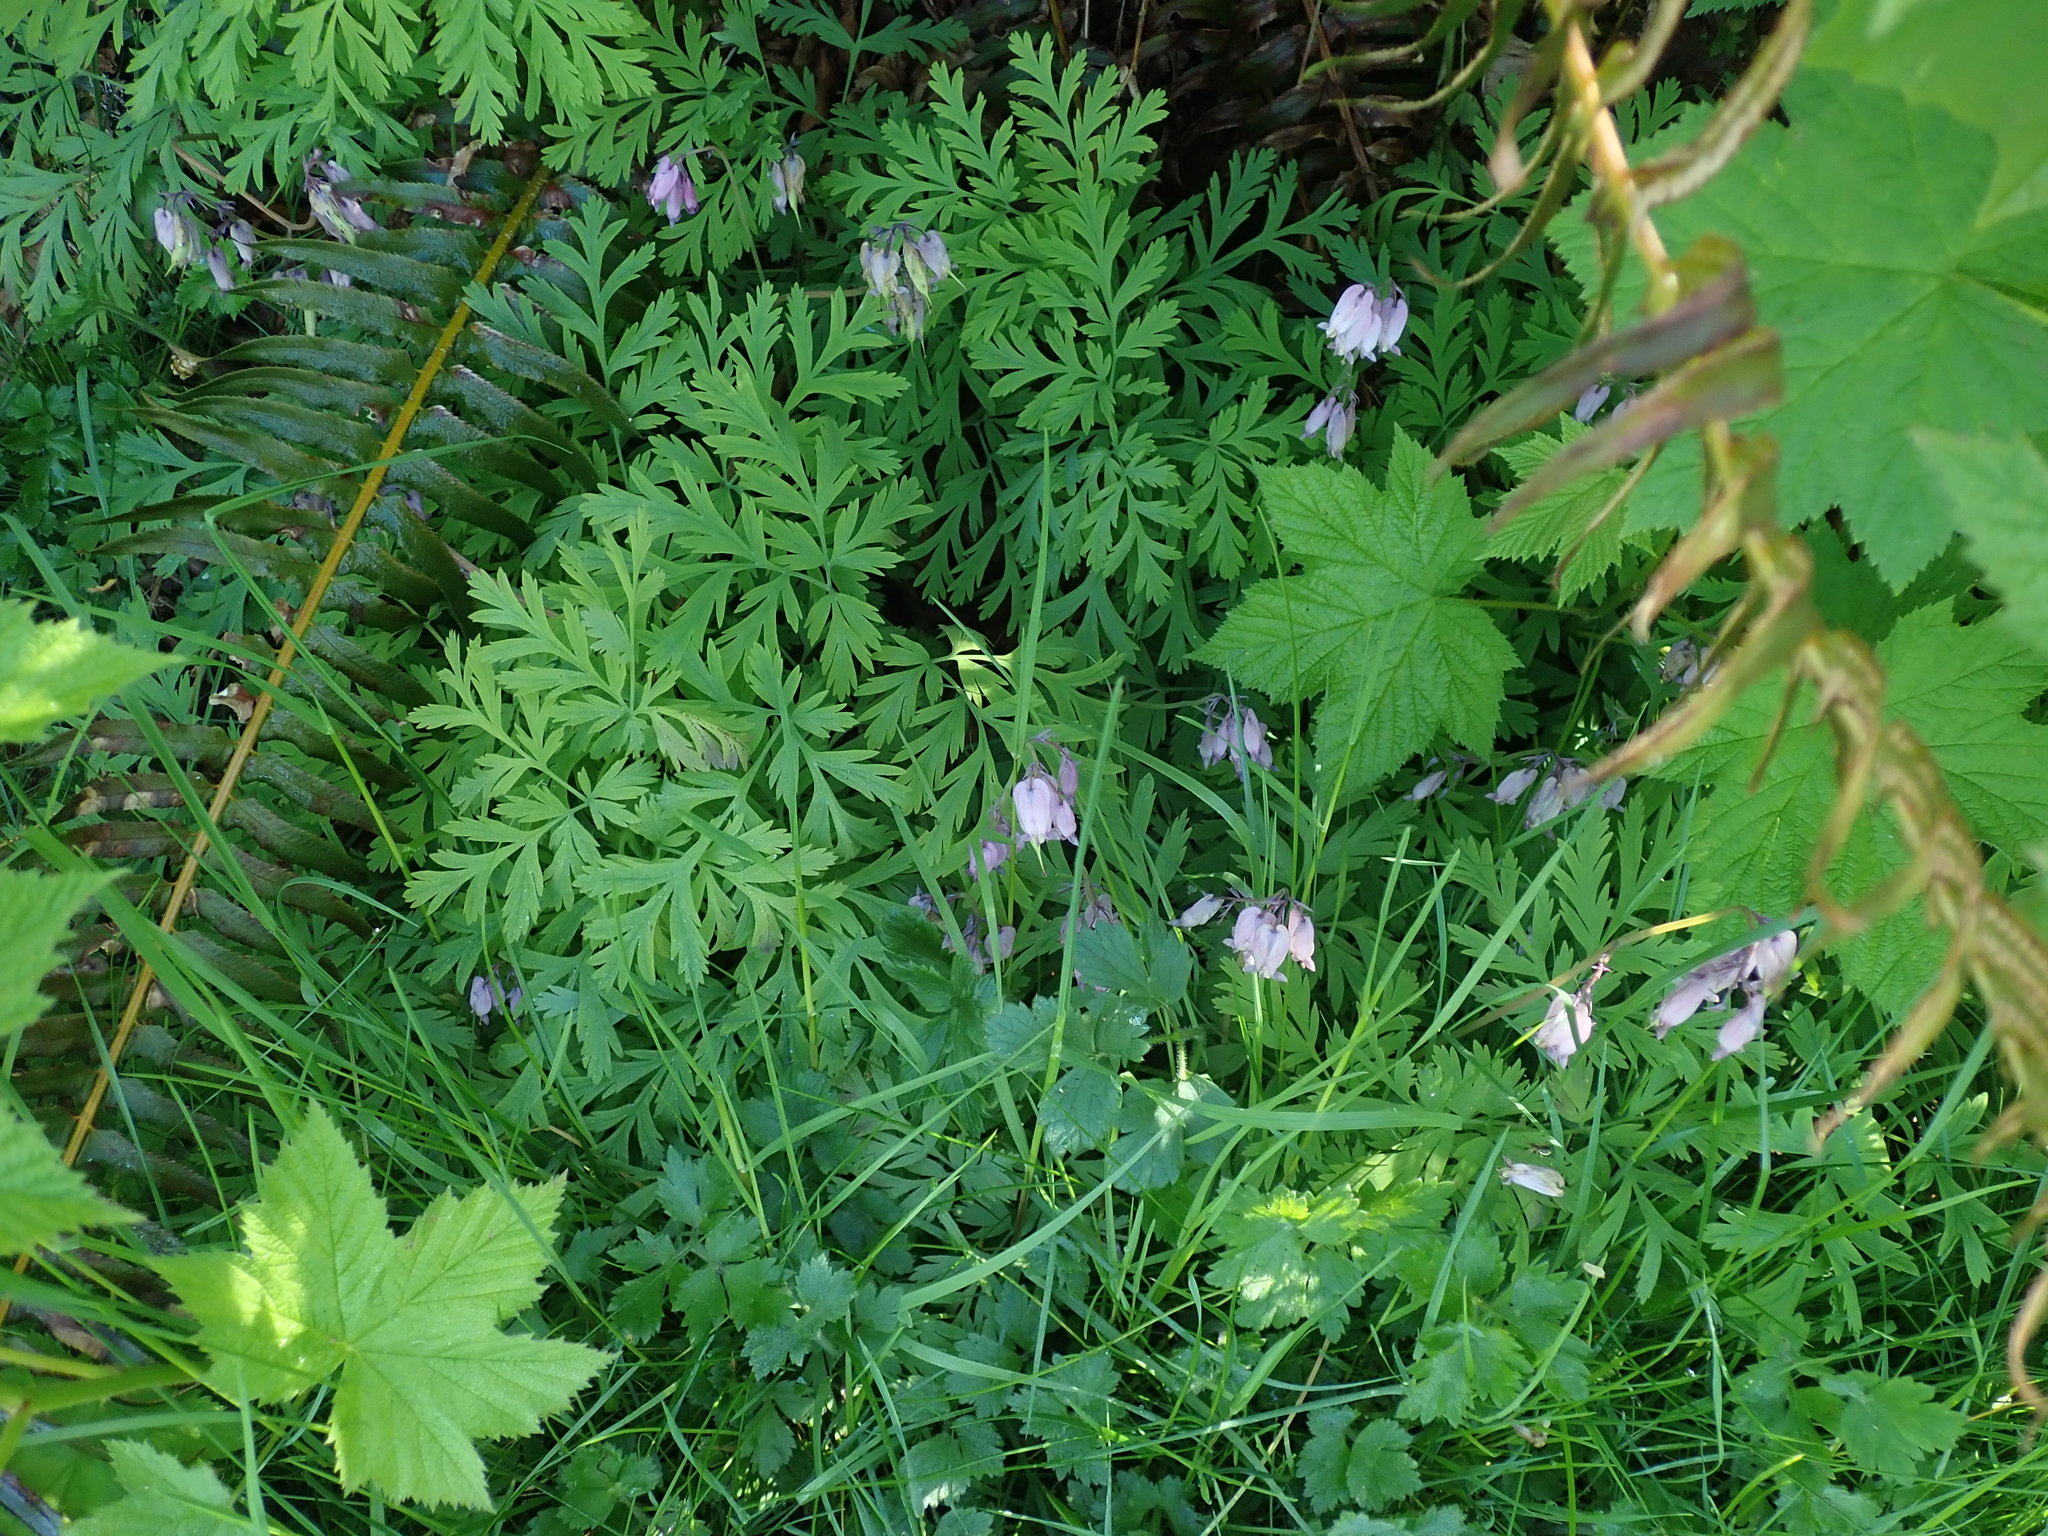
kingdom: Plantae
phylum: Tracheophyta
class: Magnoliopsida
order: Ranunculales
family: Papaveraceae
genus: Dicentra
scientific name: Dicentra formosa
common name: Bleeding-heart
